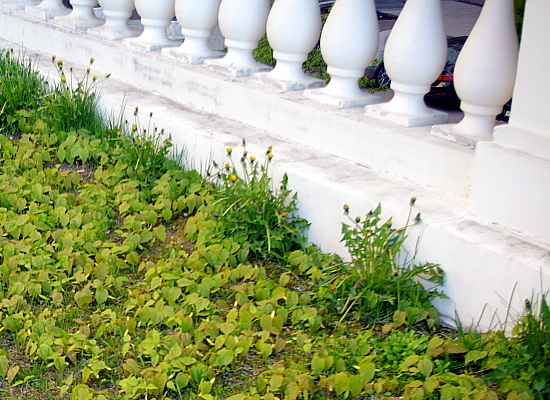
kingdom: Plantae
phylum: Tracheophyta
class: Magnoliopsida
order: Asterales
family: Asteraceae
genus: Taraxacum
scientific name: Taraxacum officinale
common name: Common dandelion
